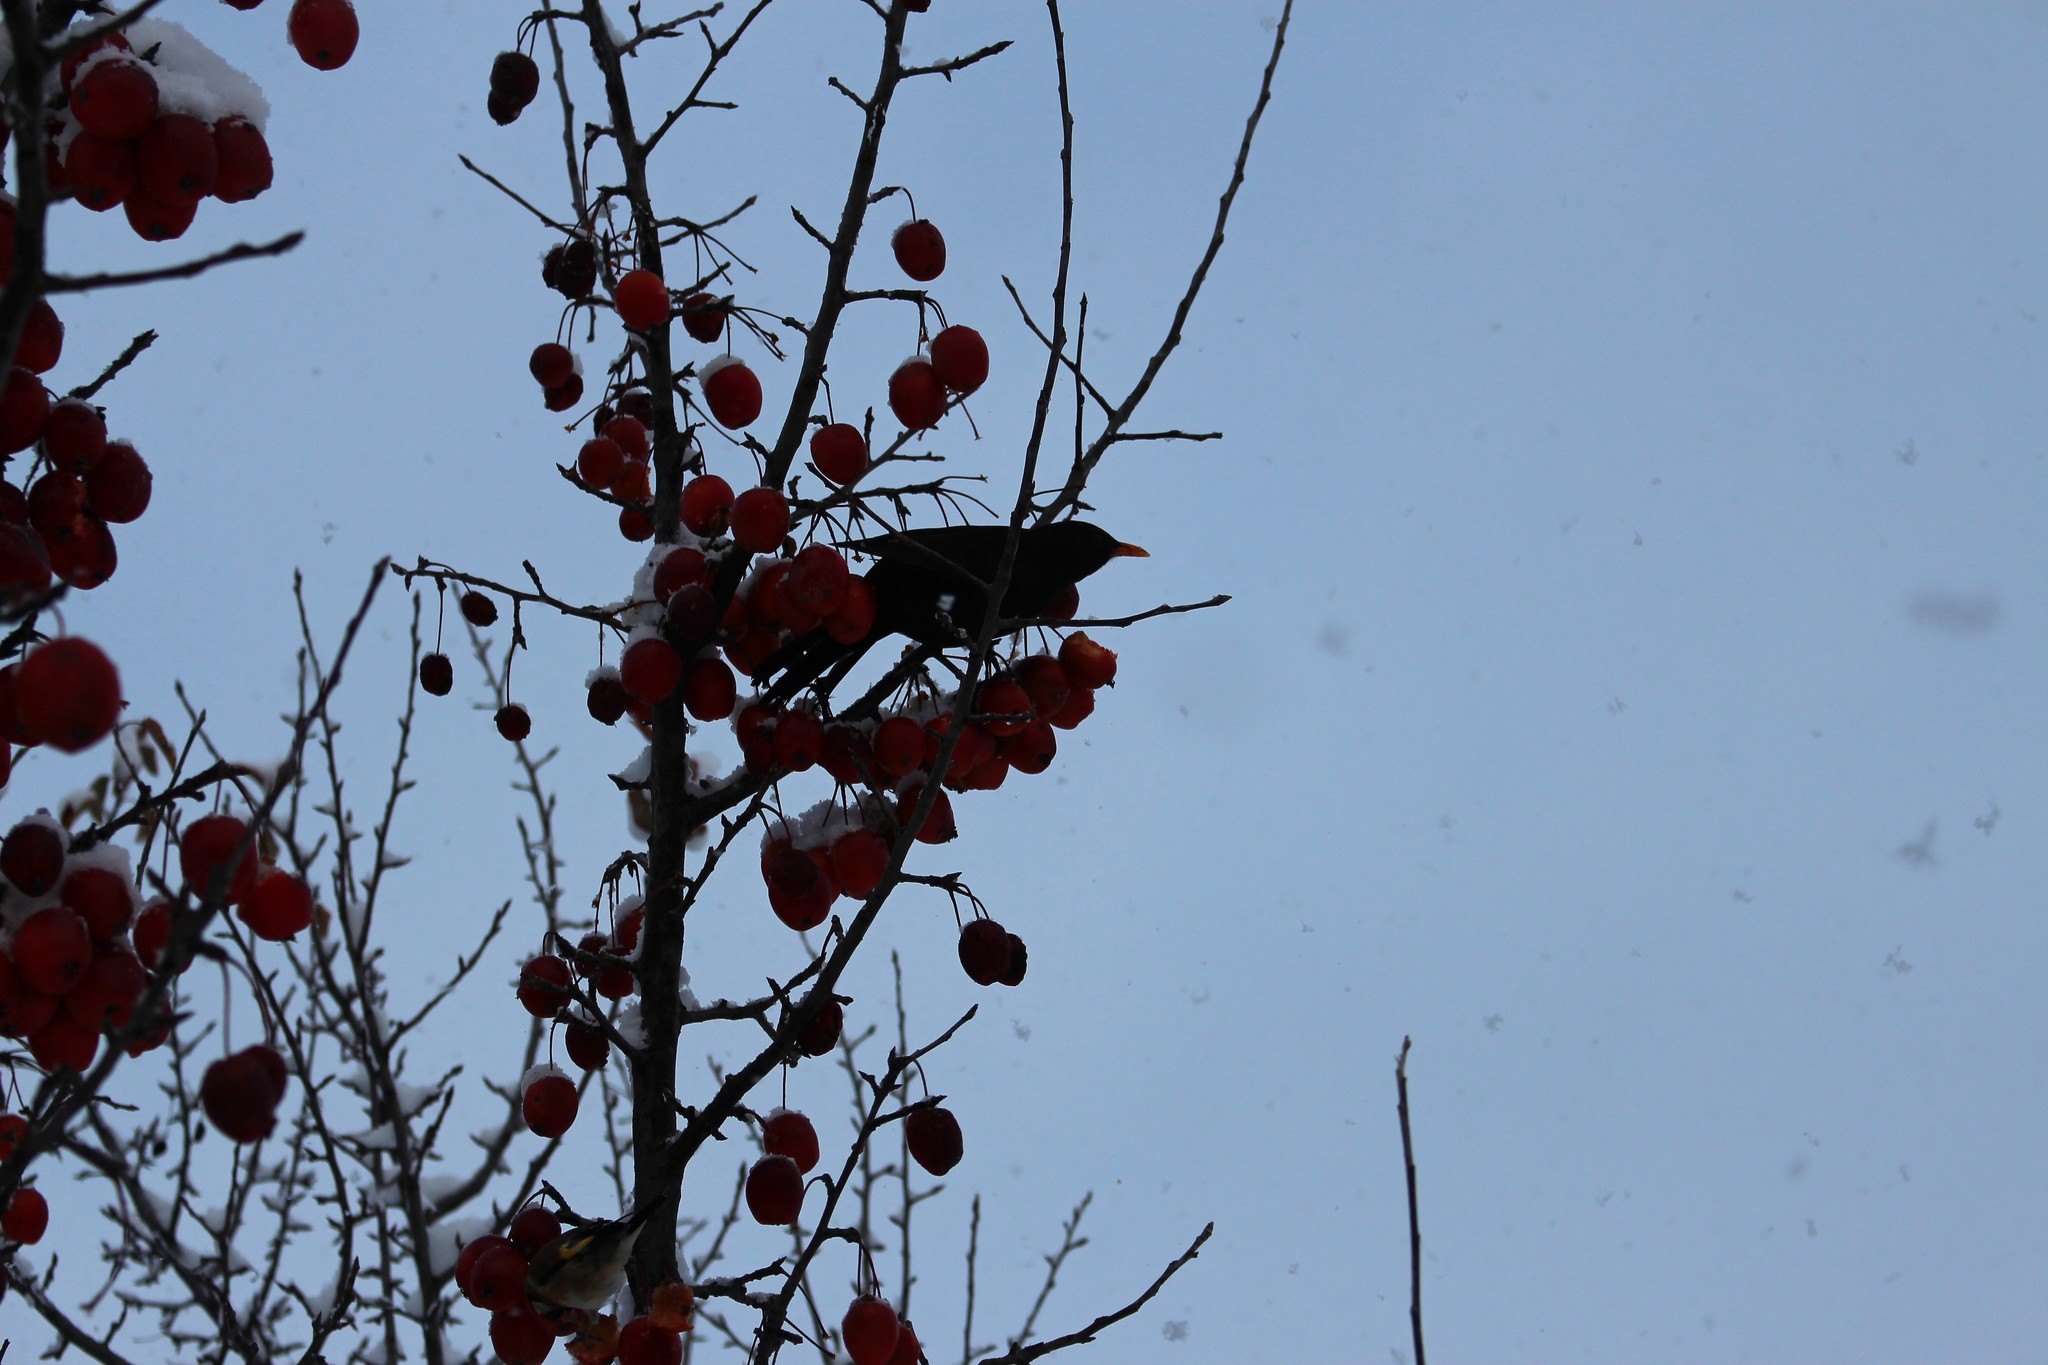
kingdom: Animalia
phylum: Chordata
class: Aves
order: Passeriformes
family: Turdidae
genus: Turdus
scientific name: Turdus merula
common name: Common blackbird
